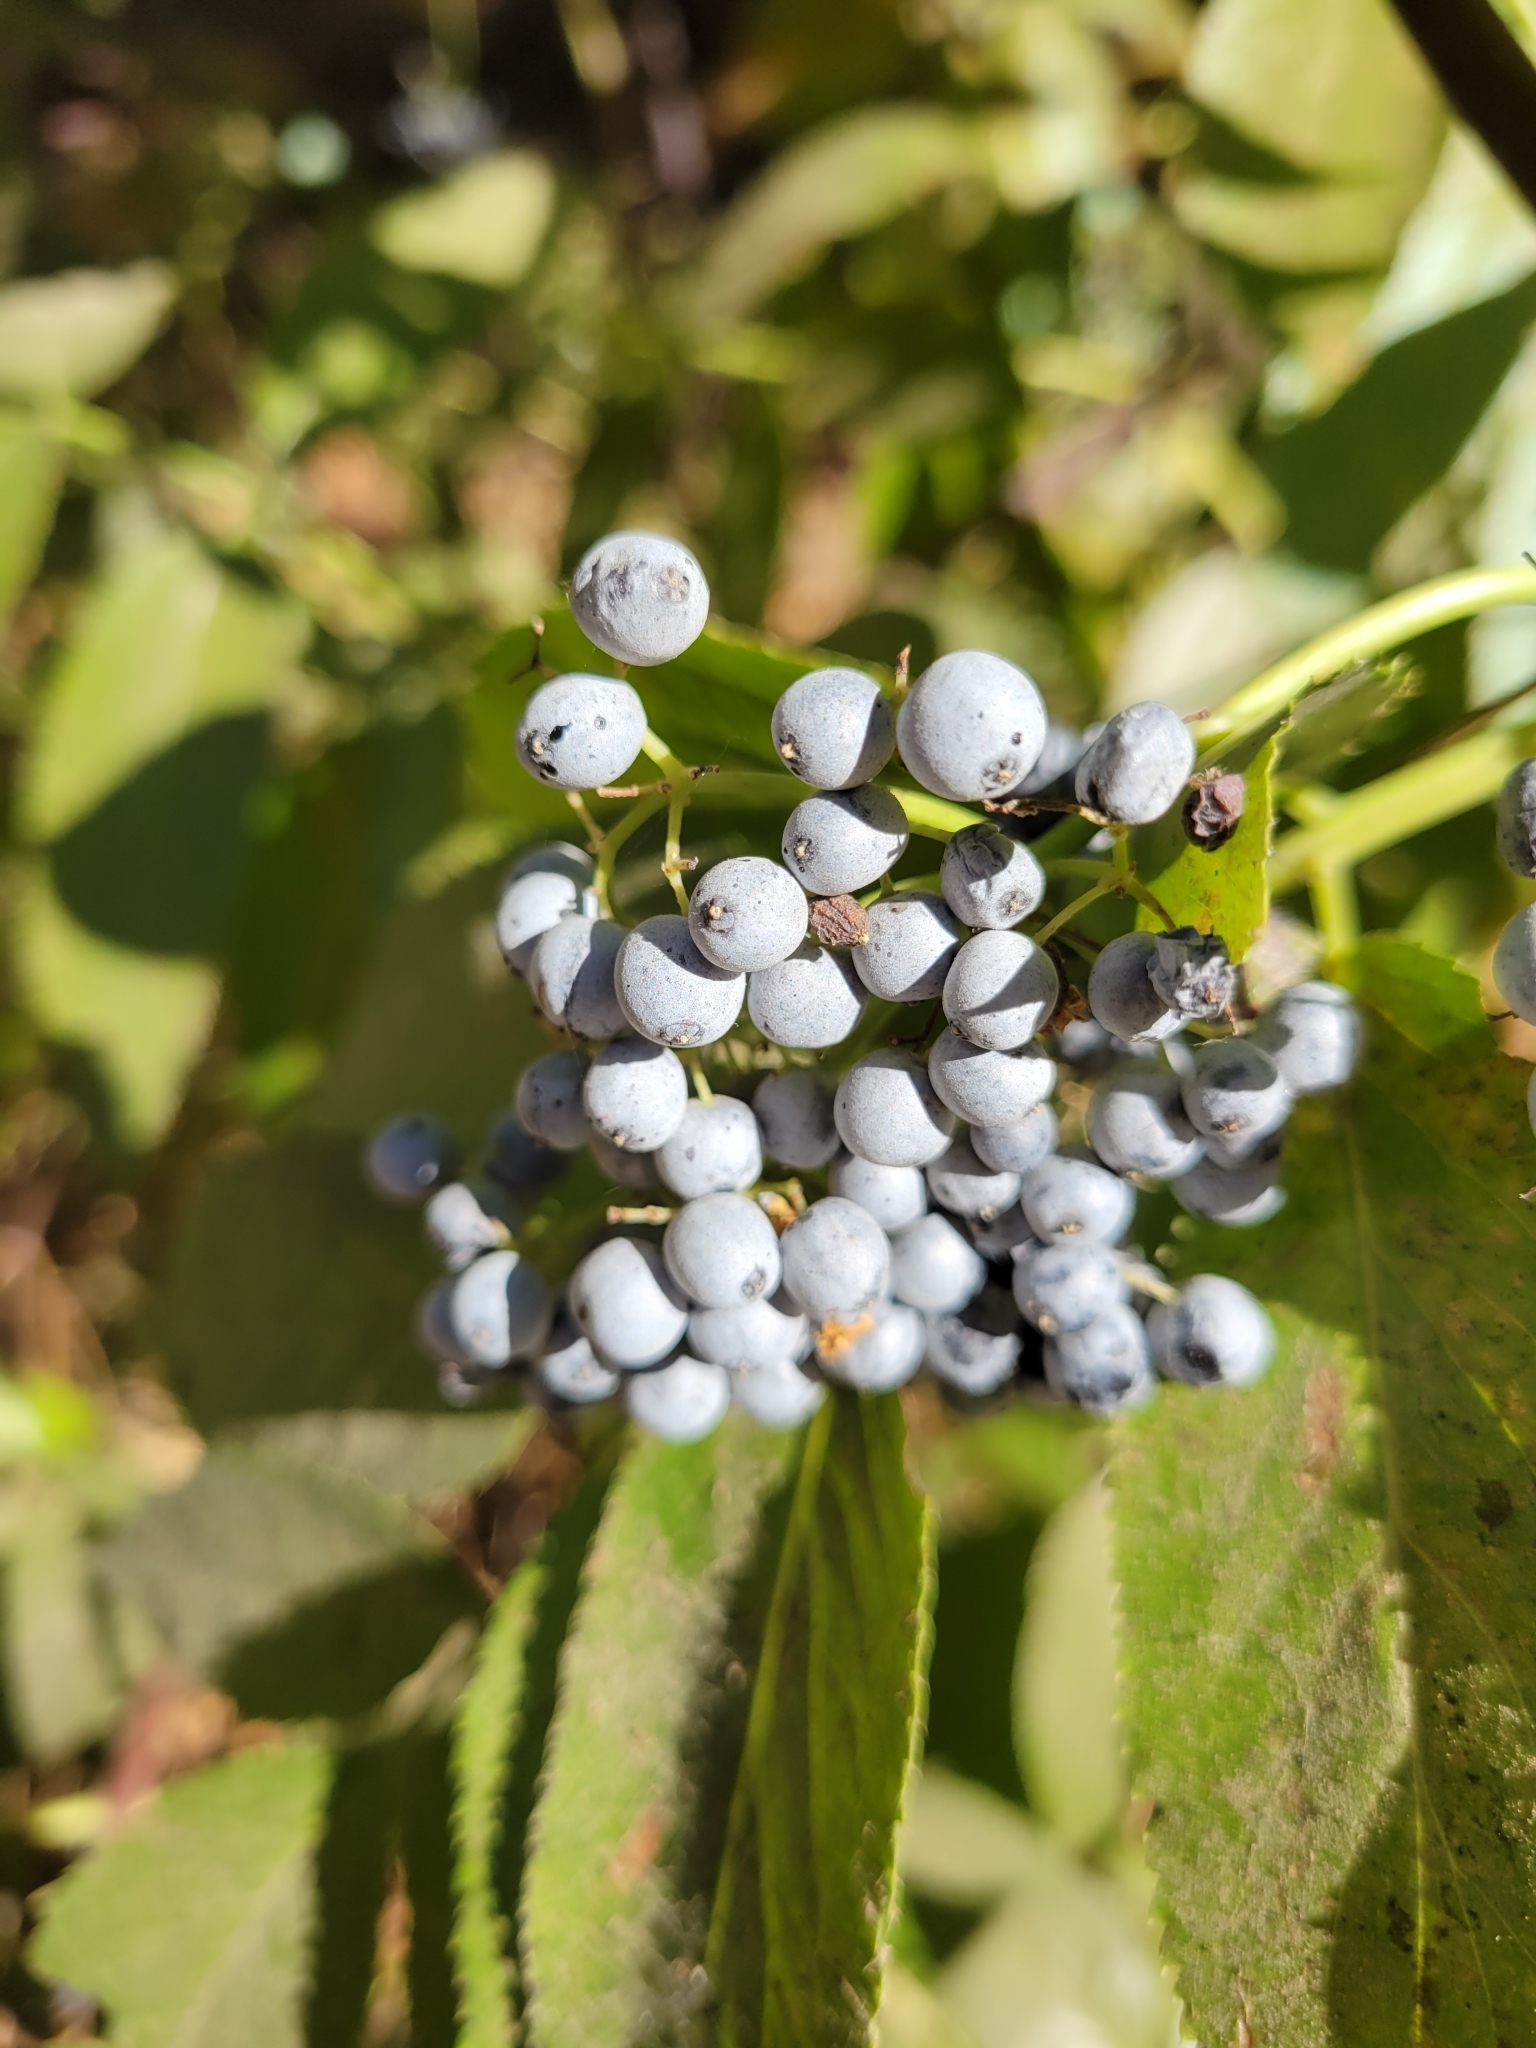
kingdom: Plantae
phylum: Tracheophyta
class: Magnoliopsida
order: Dipsacales
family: Viburnaceae
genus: Sambucus
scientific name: Sambucus cerulea
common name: Blue elder
